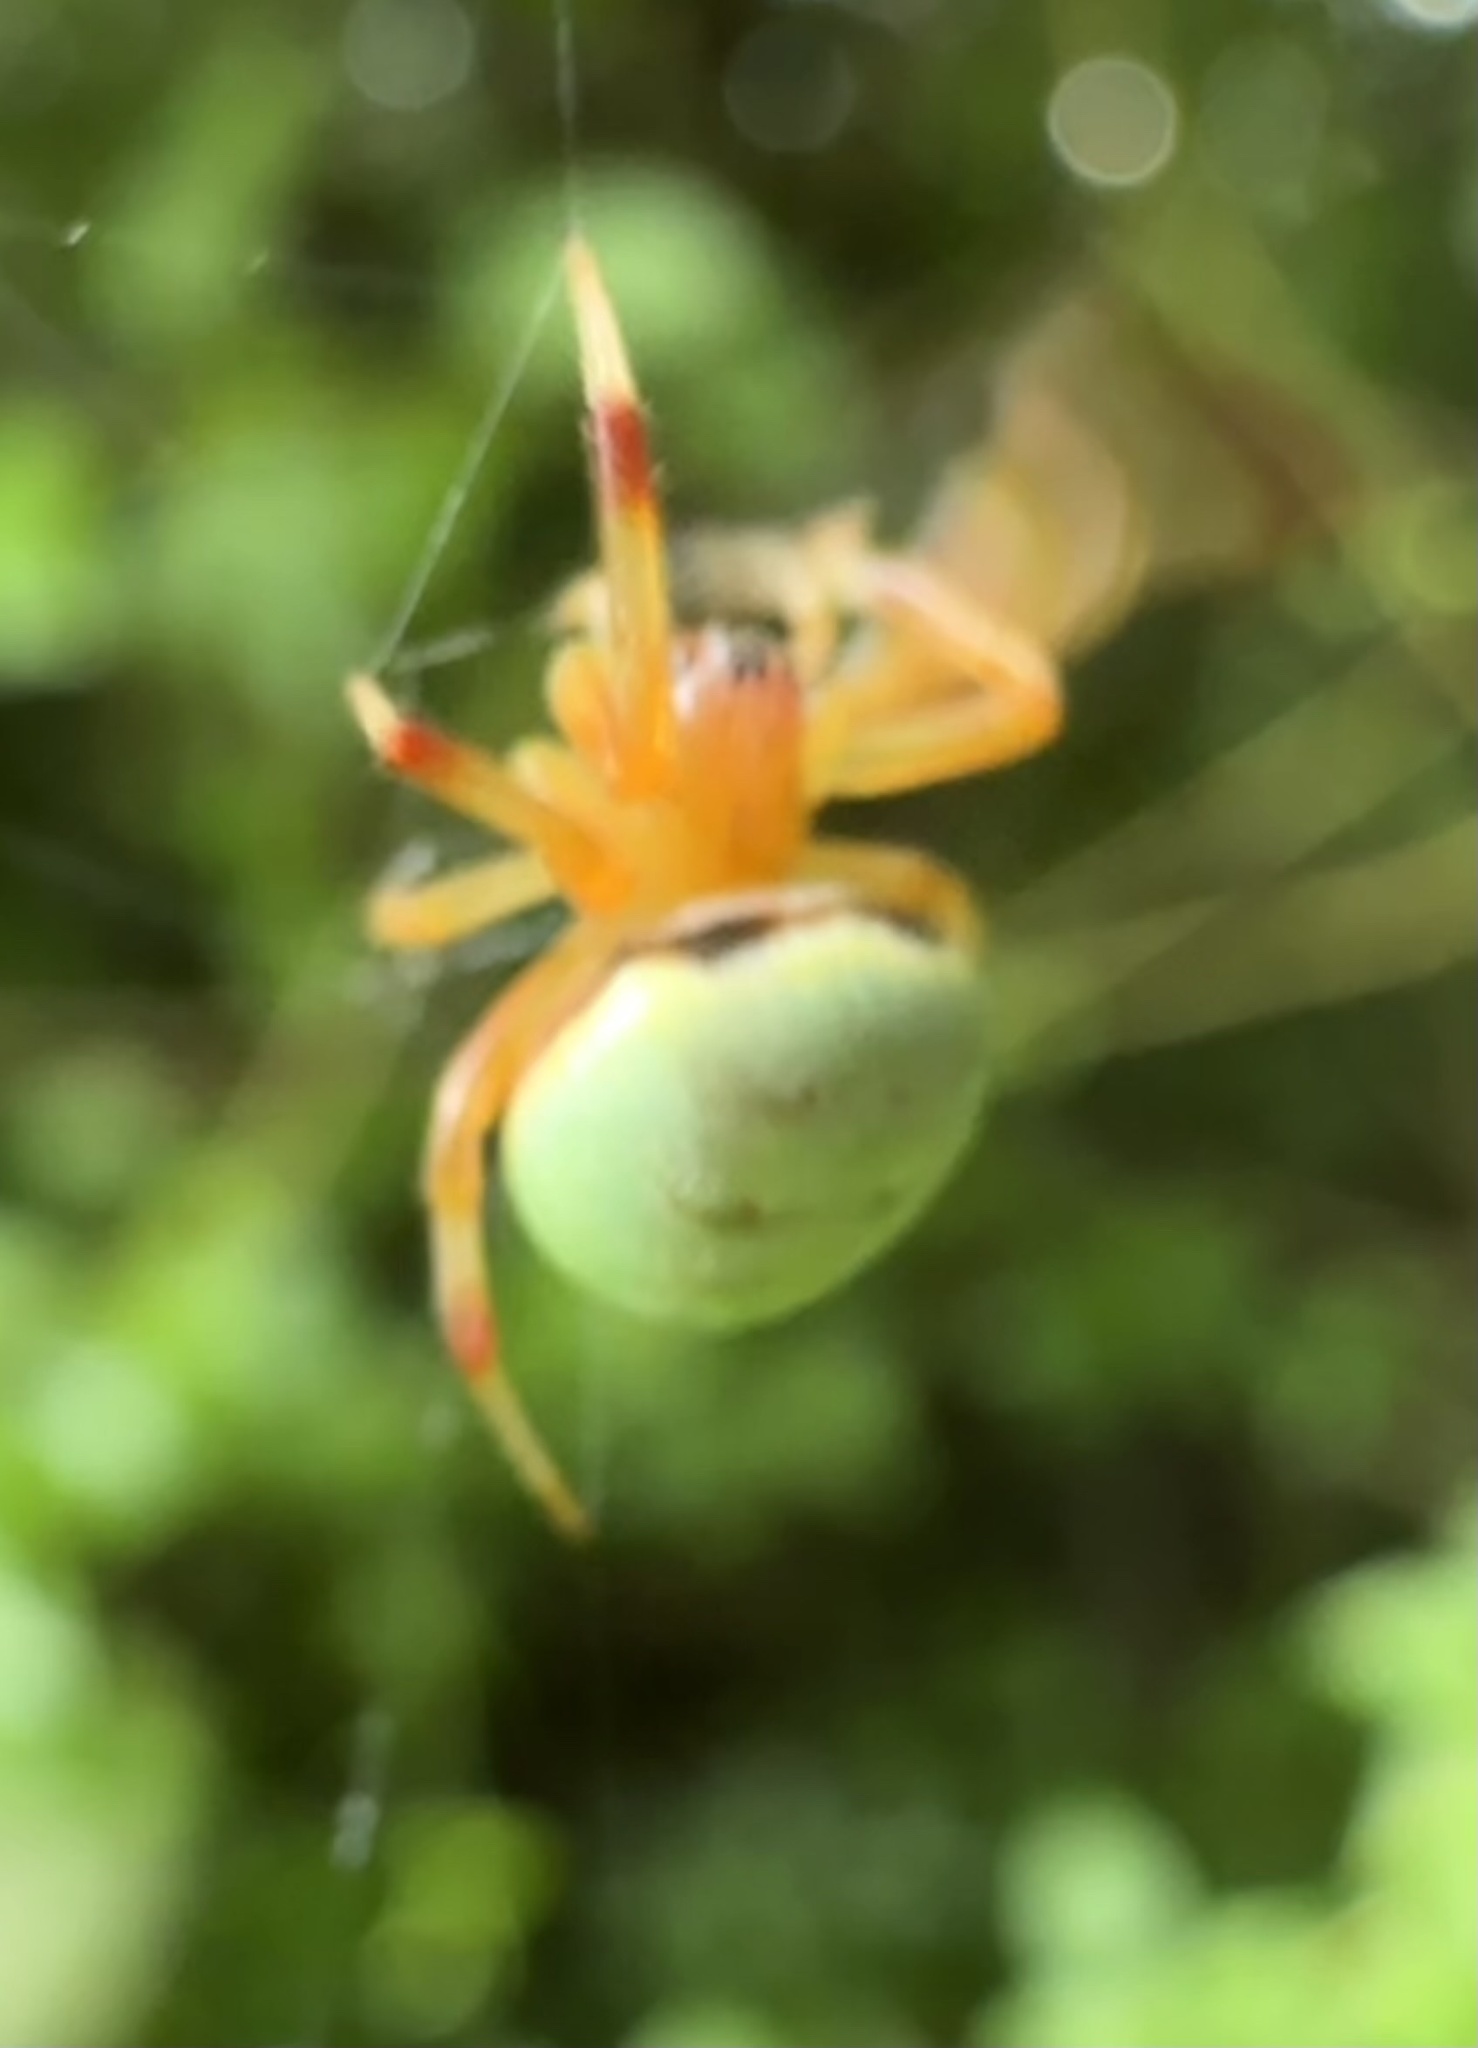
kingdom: Animalia
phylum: Arthropoda
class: Arachnida
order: Araneae
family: Araneidae
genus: Araneus
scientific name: Araneus apricus
